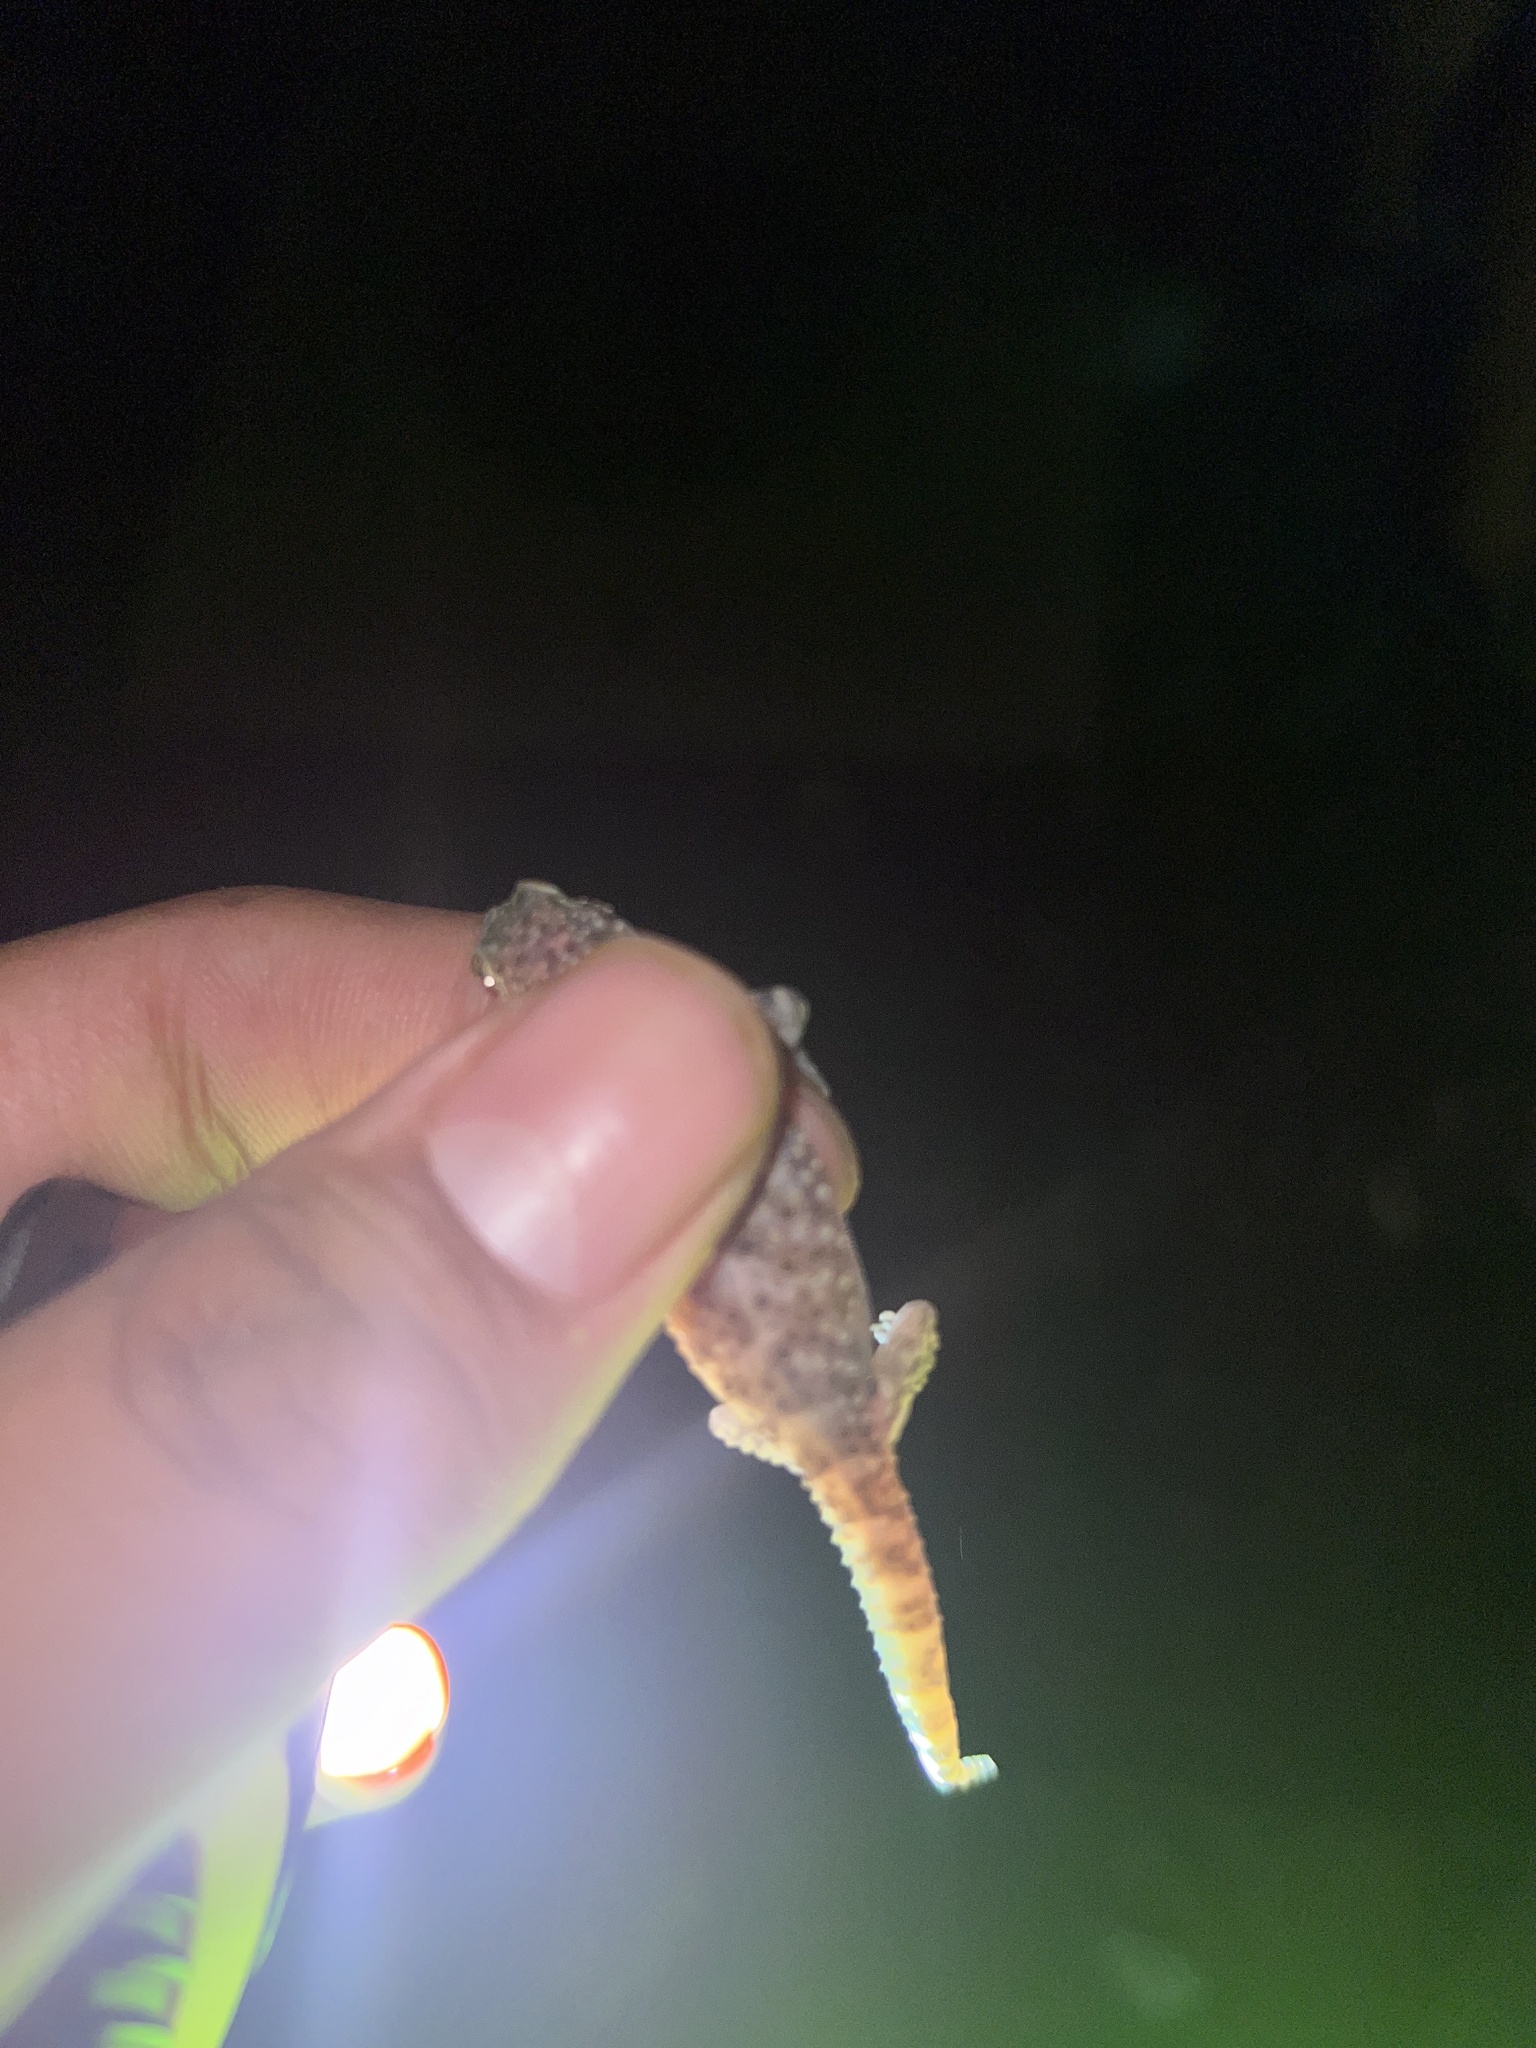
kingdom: Animalia
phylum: Chordata
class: Squamata
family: Gekkonidae
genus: Hemidactylus
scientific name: Hemidactylus turcicus
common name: Turkish gecko
